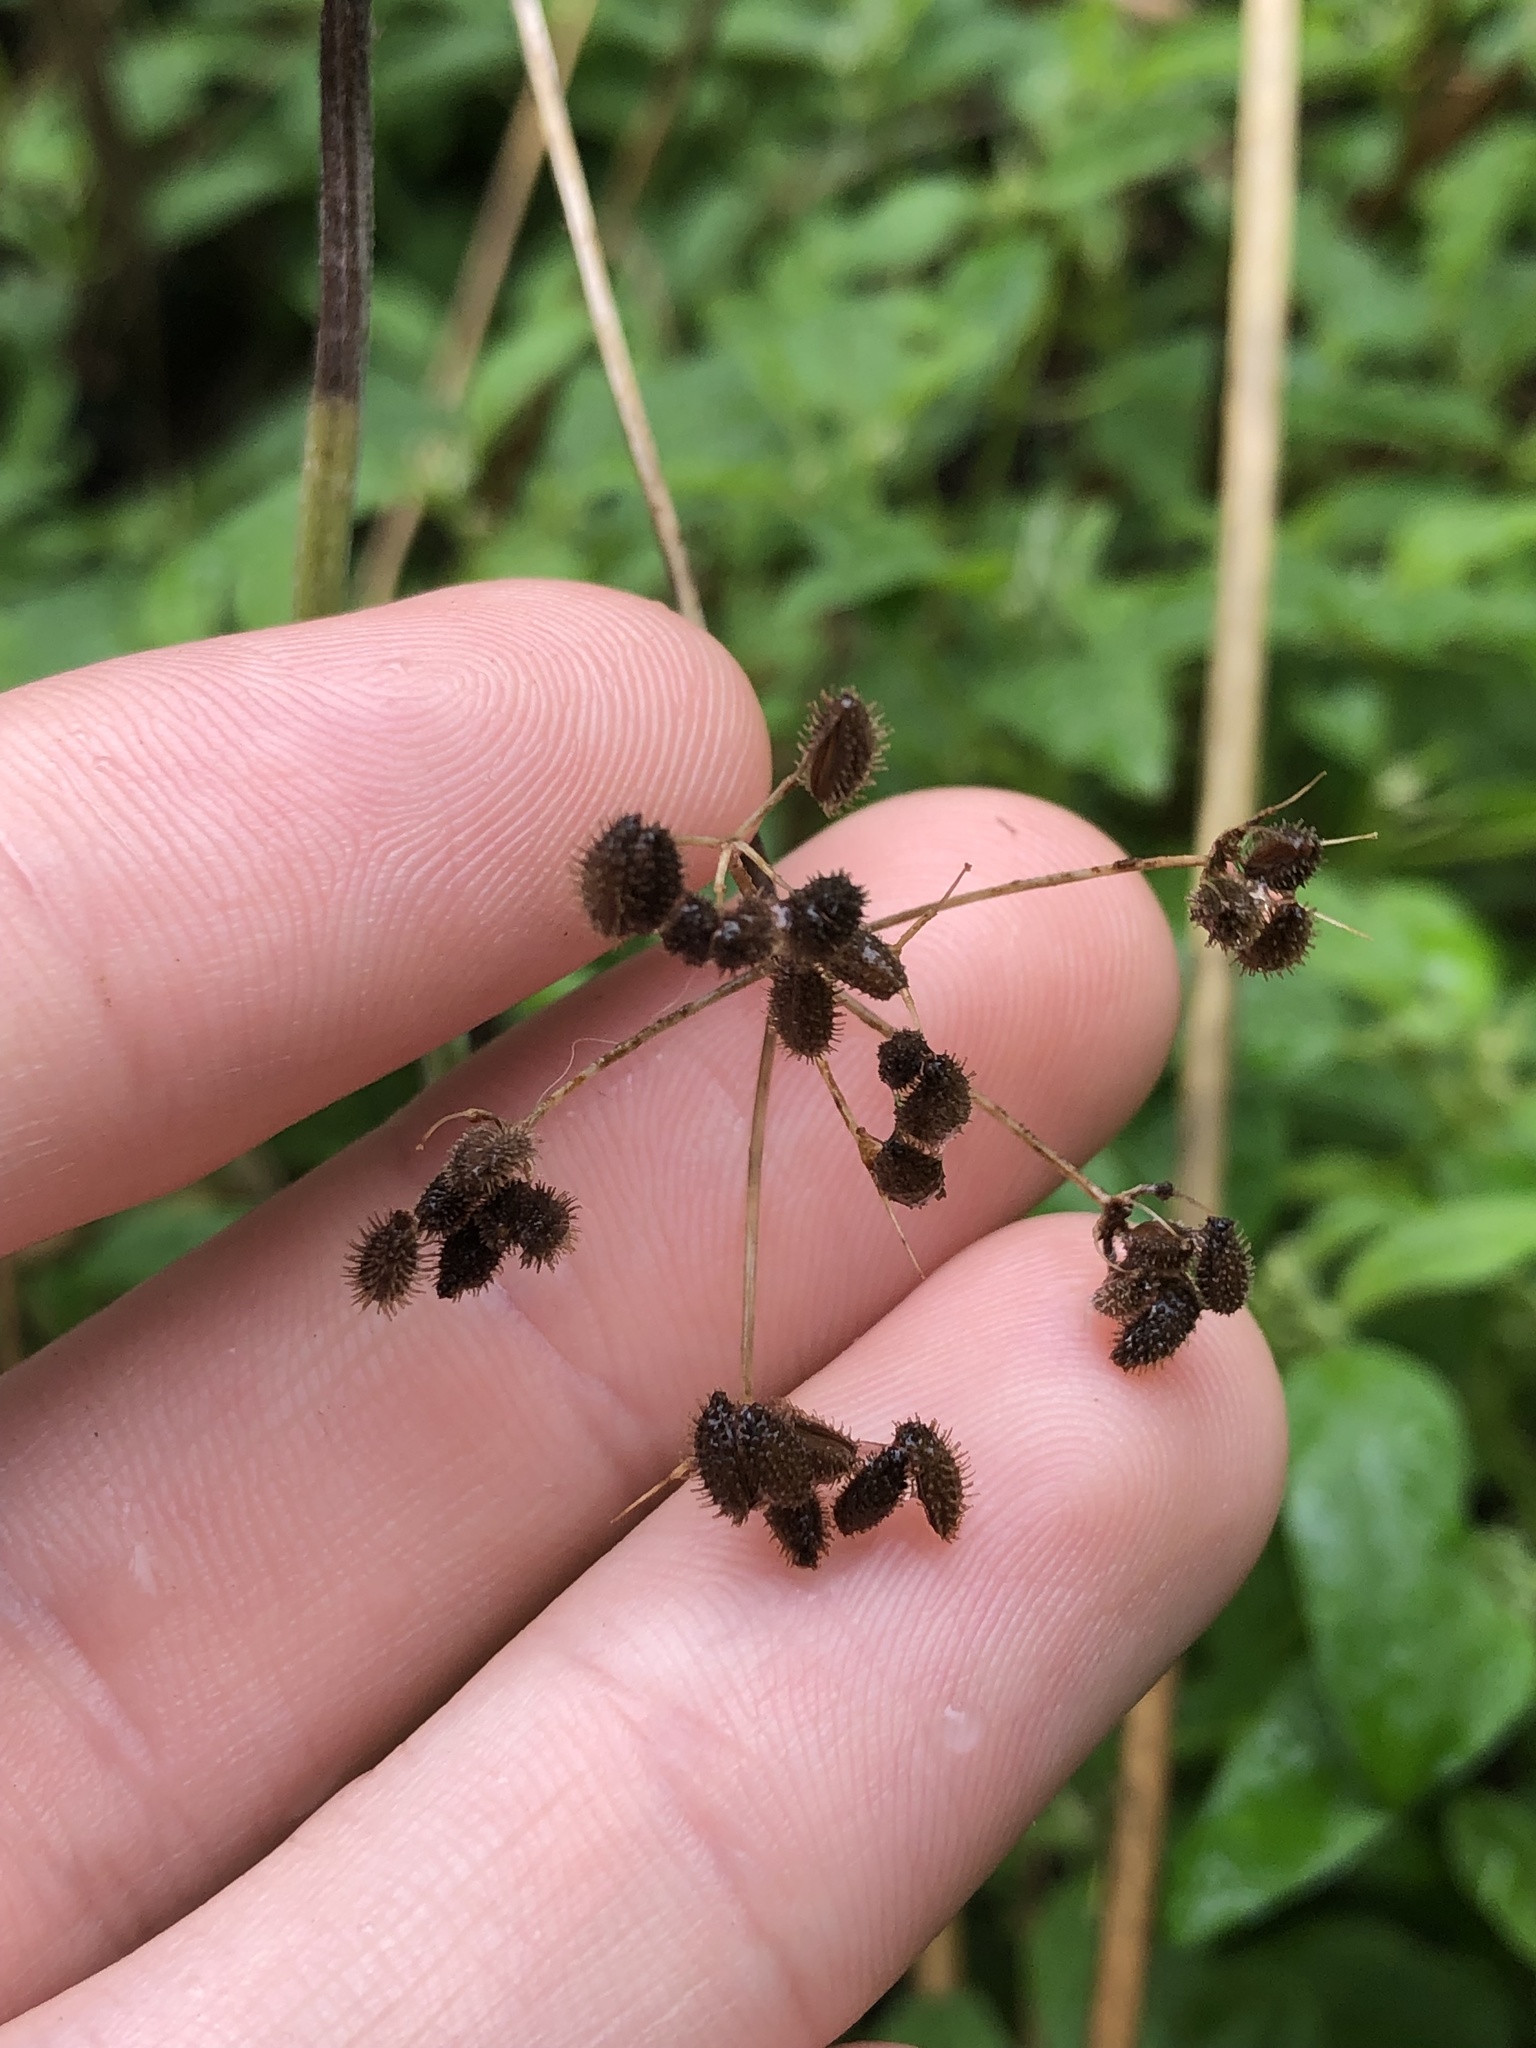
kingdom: Plantae
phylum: Tracheophyta
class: Magnoliopsida
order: Apiales
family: Apiaceae
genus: Torilis
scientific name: Torilis arvensis
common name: Spreading hedge-parsley
